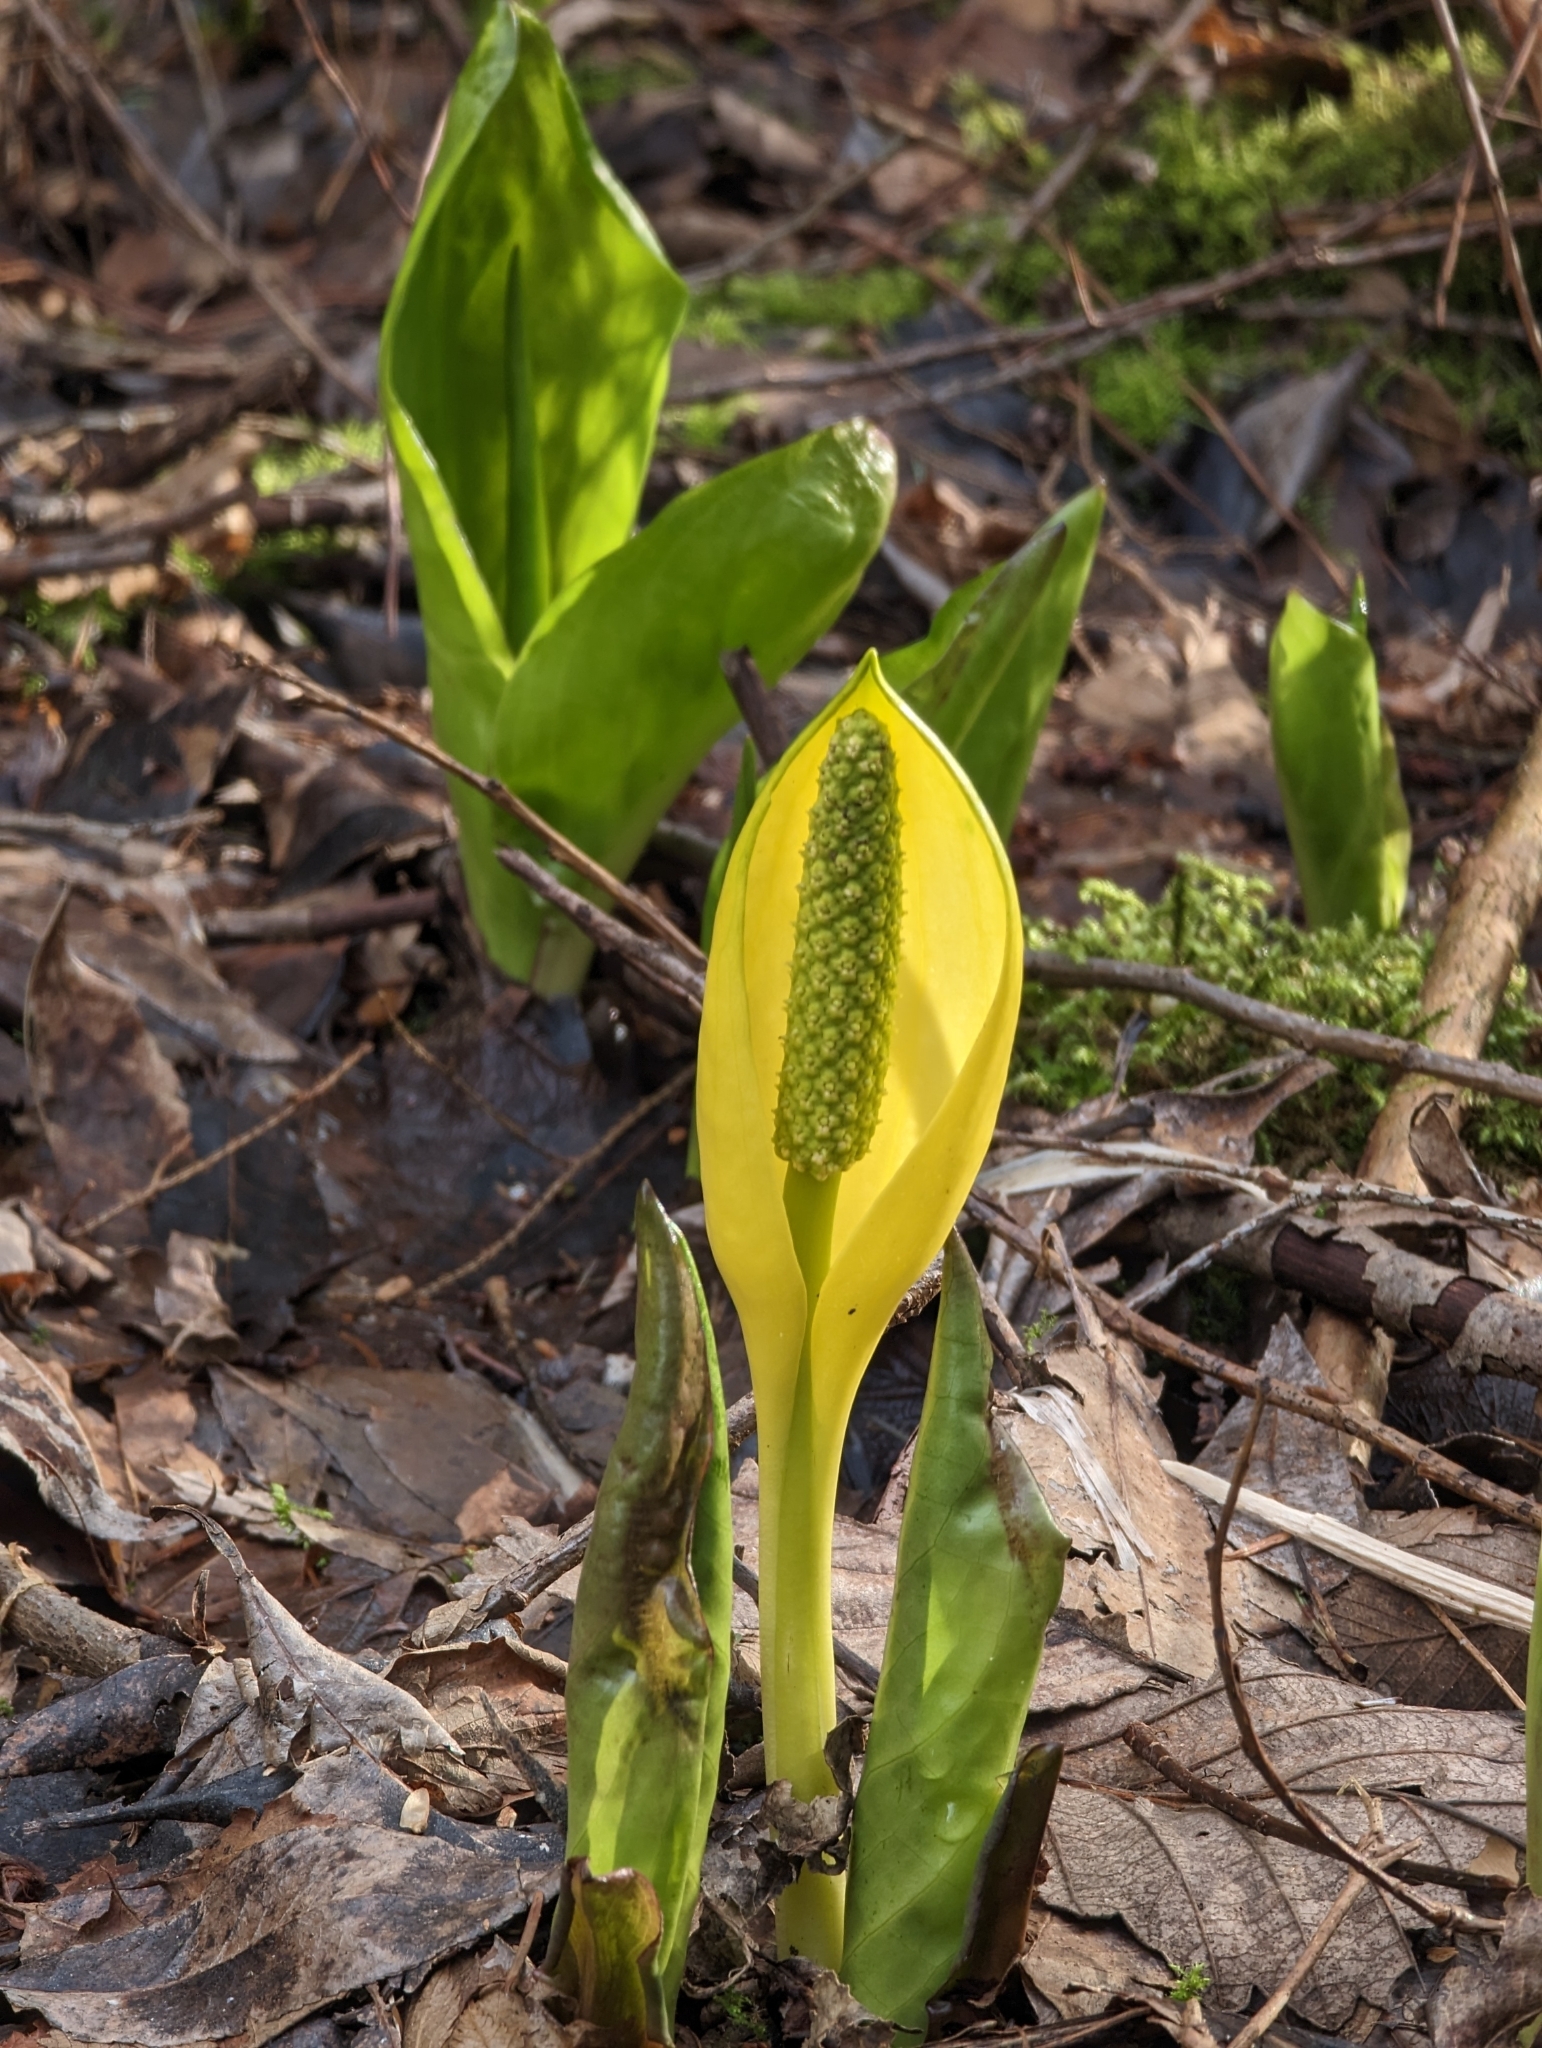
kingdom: Plantae
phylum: Tracheophyta
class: Liliopsida
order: Alismatales
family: Araceae
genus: Lysichiton
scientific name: Lysichiton americanus
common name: American skunk cabbage
